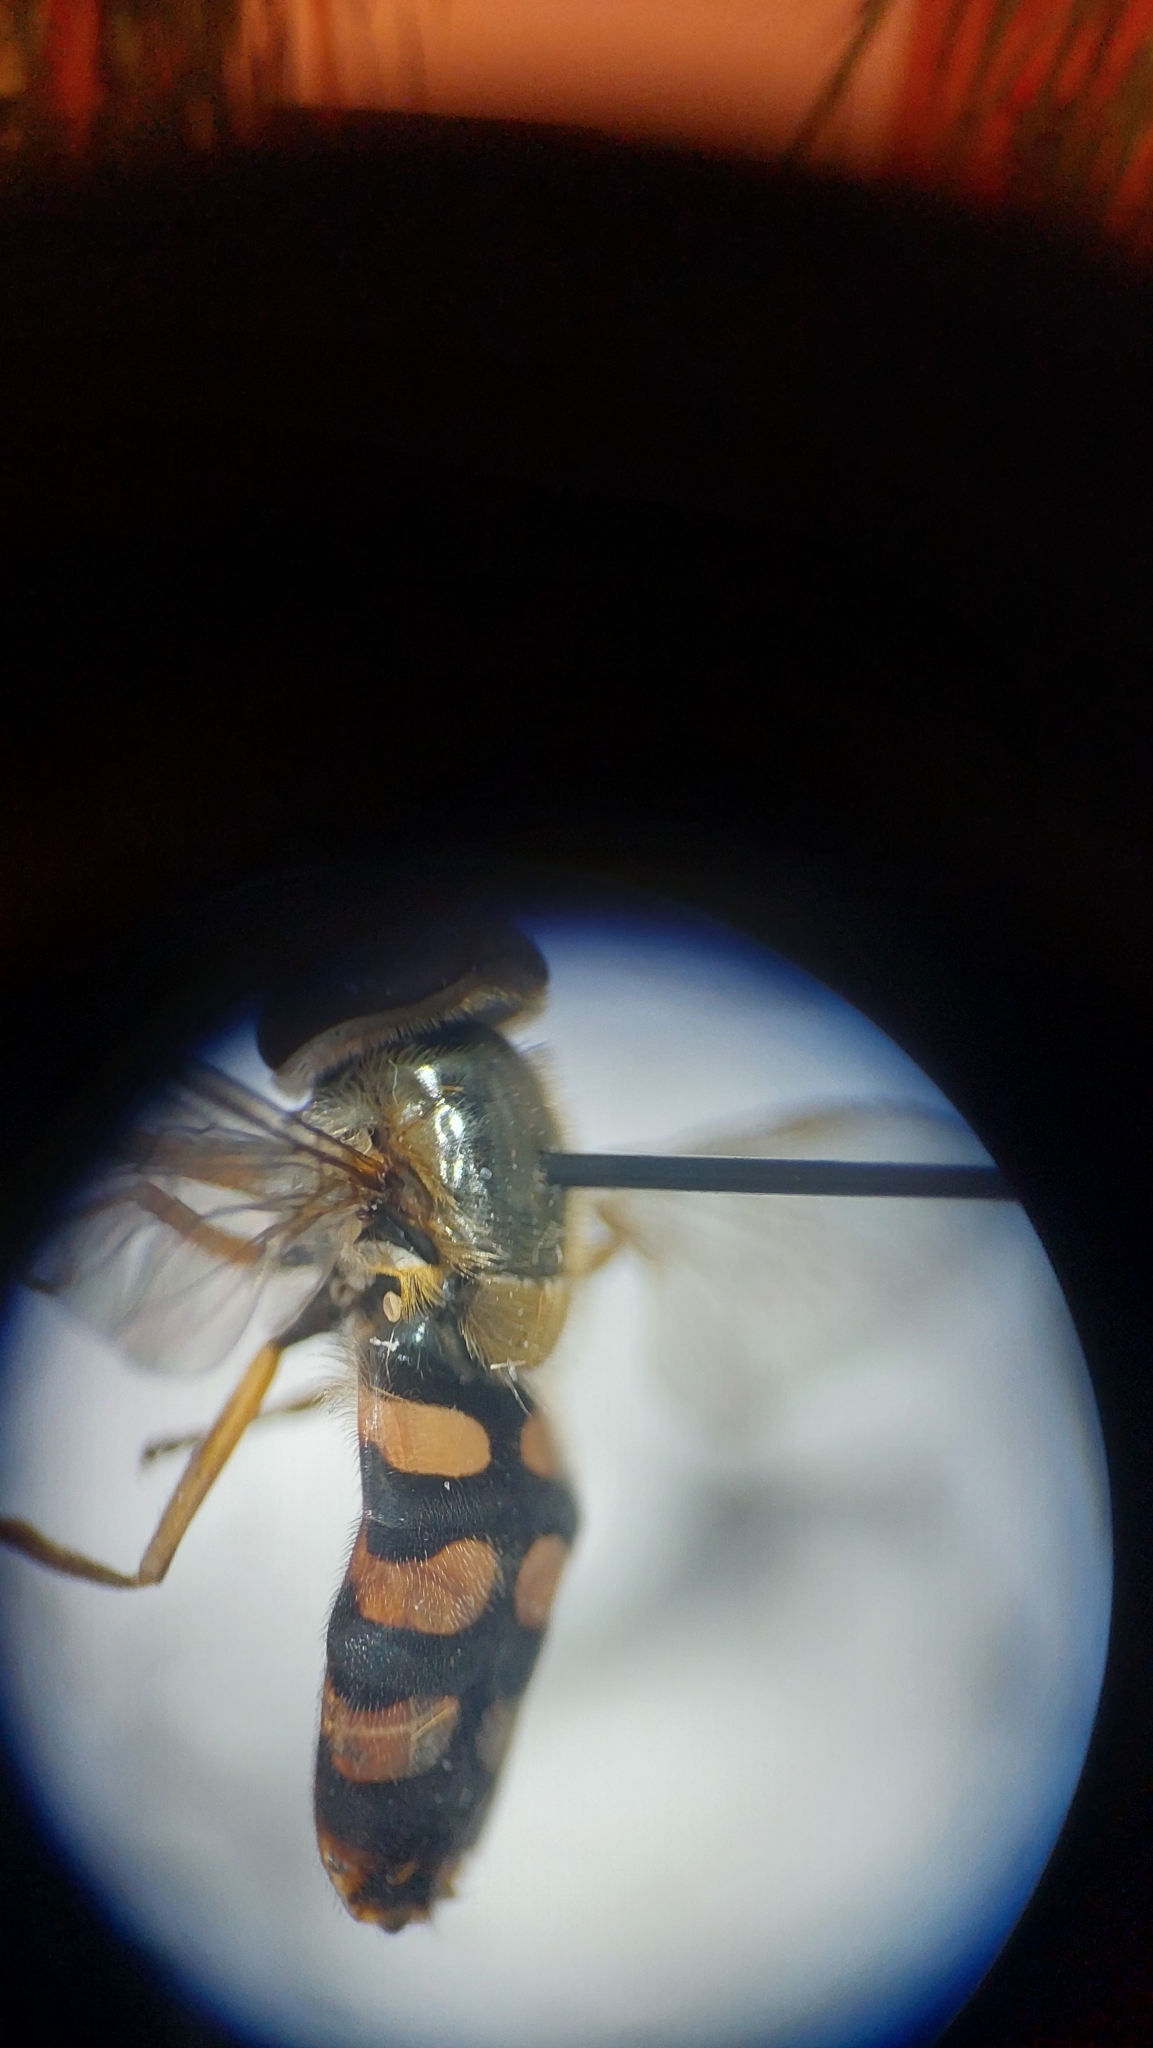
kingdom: Animalia
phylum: Arthropoda
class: Insecta
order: Diptera
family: Syrphidae
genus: Eupeodes
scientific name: Eupeodes corollae
